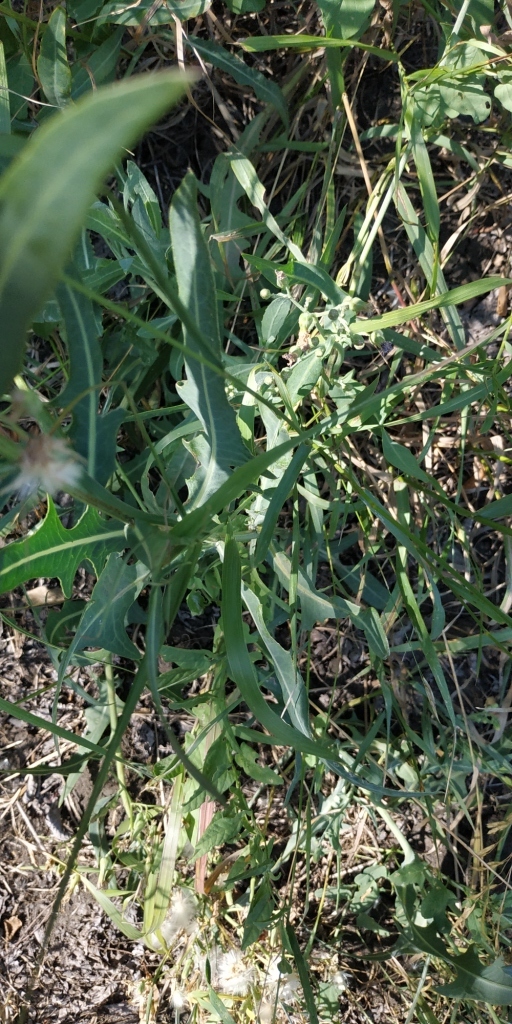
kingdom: Plantae
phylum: Tracheophyta
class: Magnoliopsida
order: Asterales
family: Asteraceae
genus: Lactuca
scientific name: Lactuca tatarica
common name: Blue lettuce
